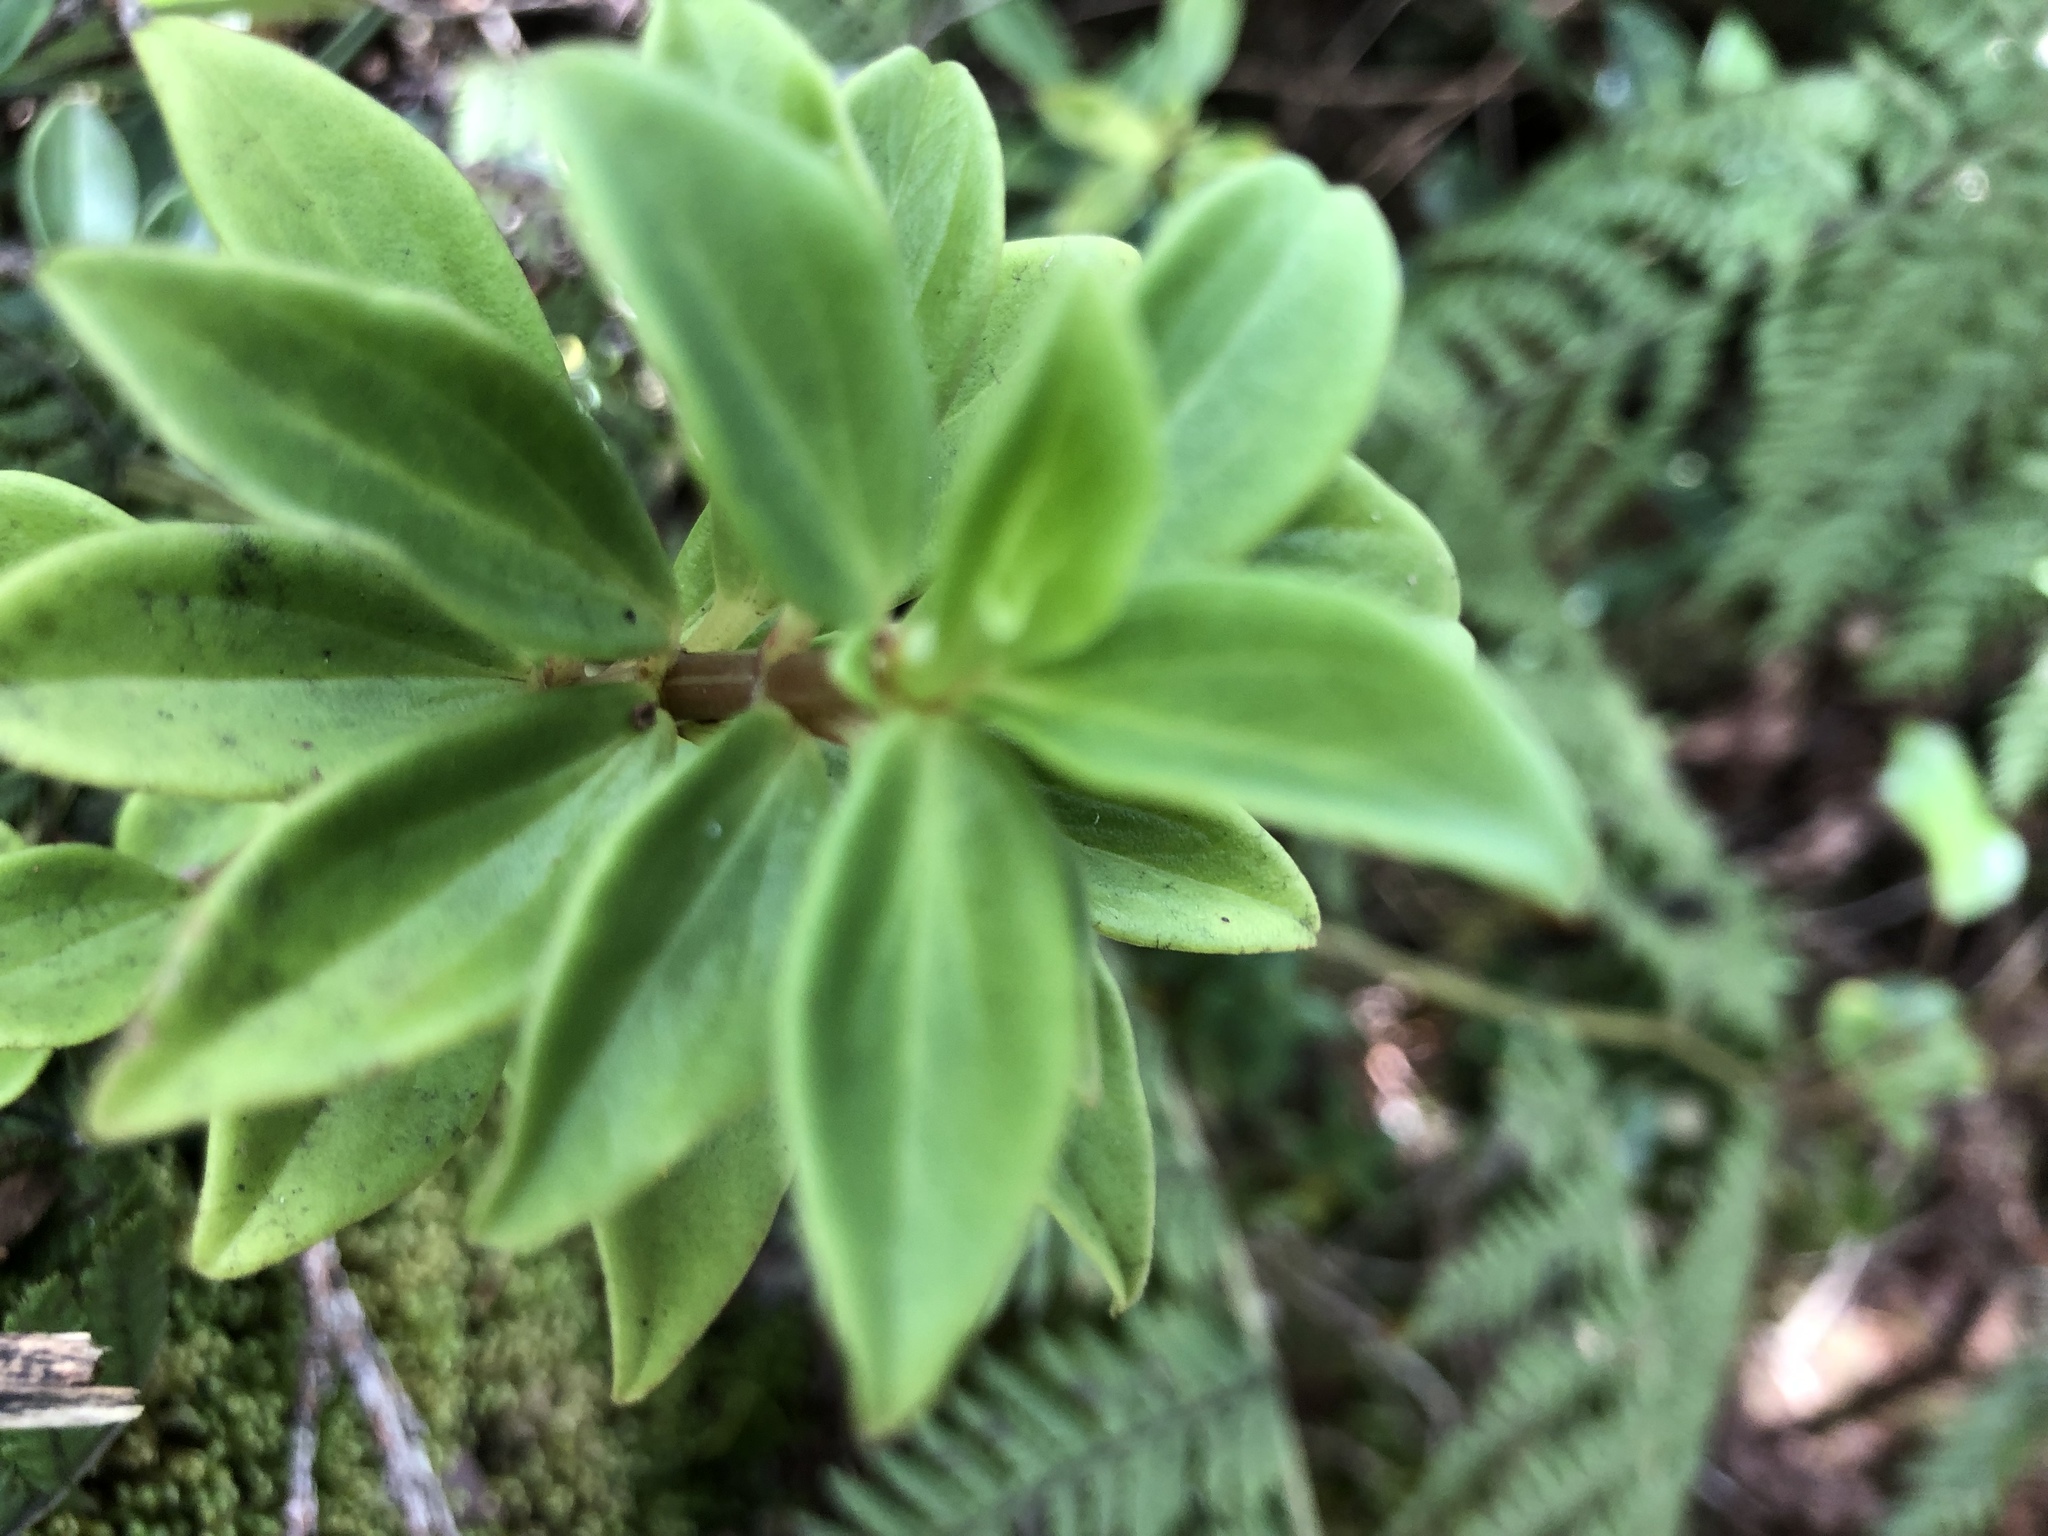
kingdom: Plantae
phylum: Tracheophyta
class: Magnoliopsida
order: Piperales
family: Piperaceae
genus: Peperomia
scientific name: Peperomia hesperomannii
